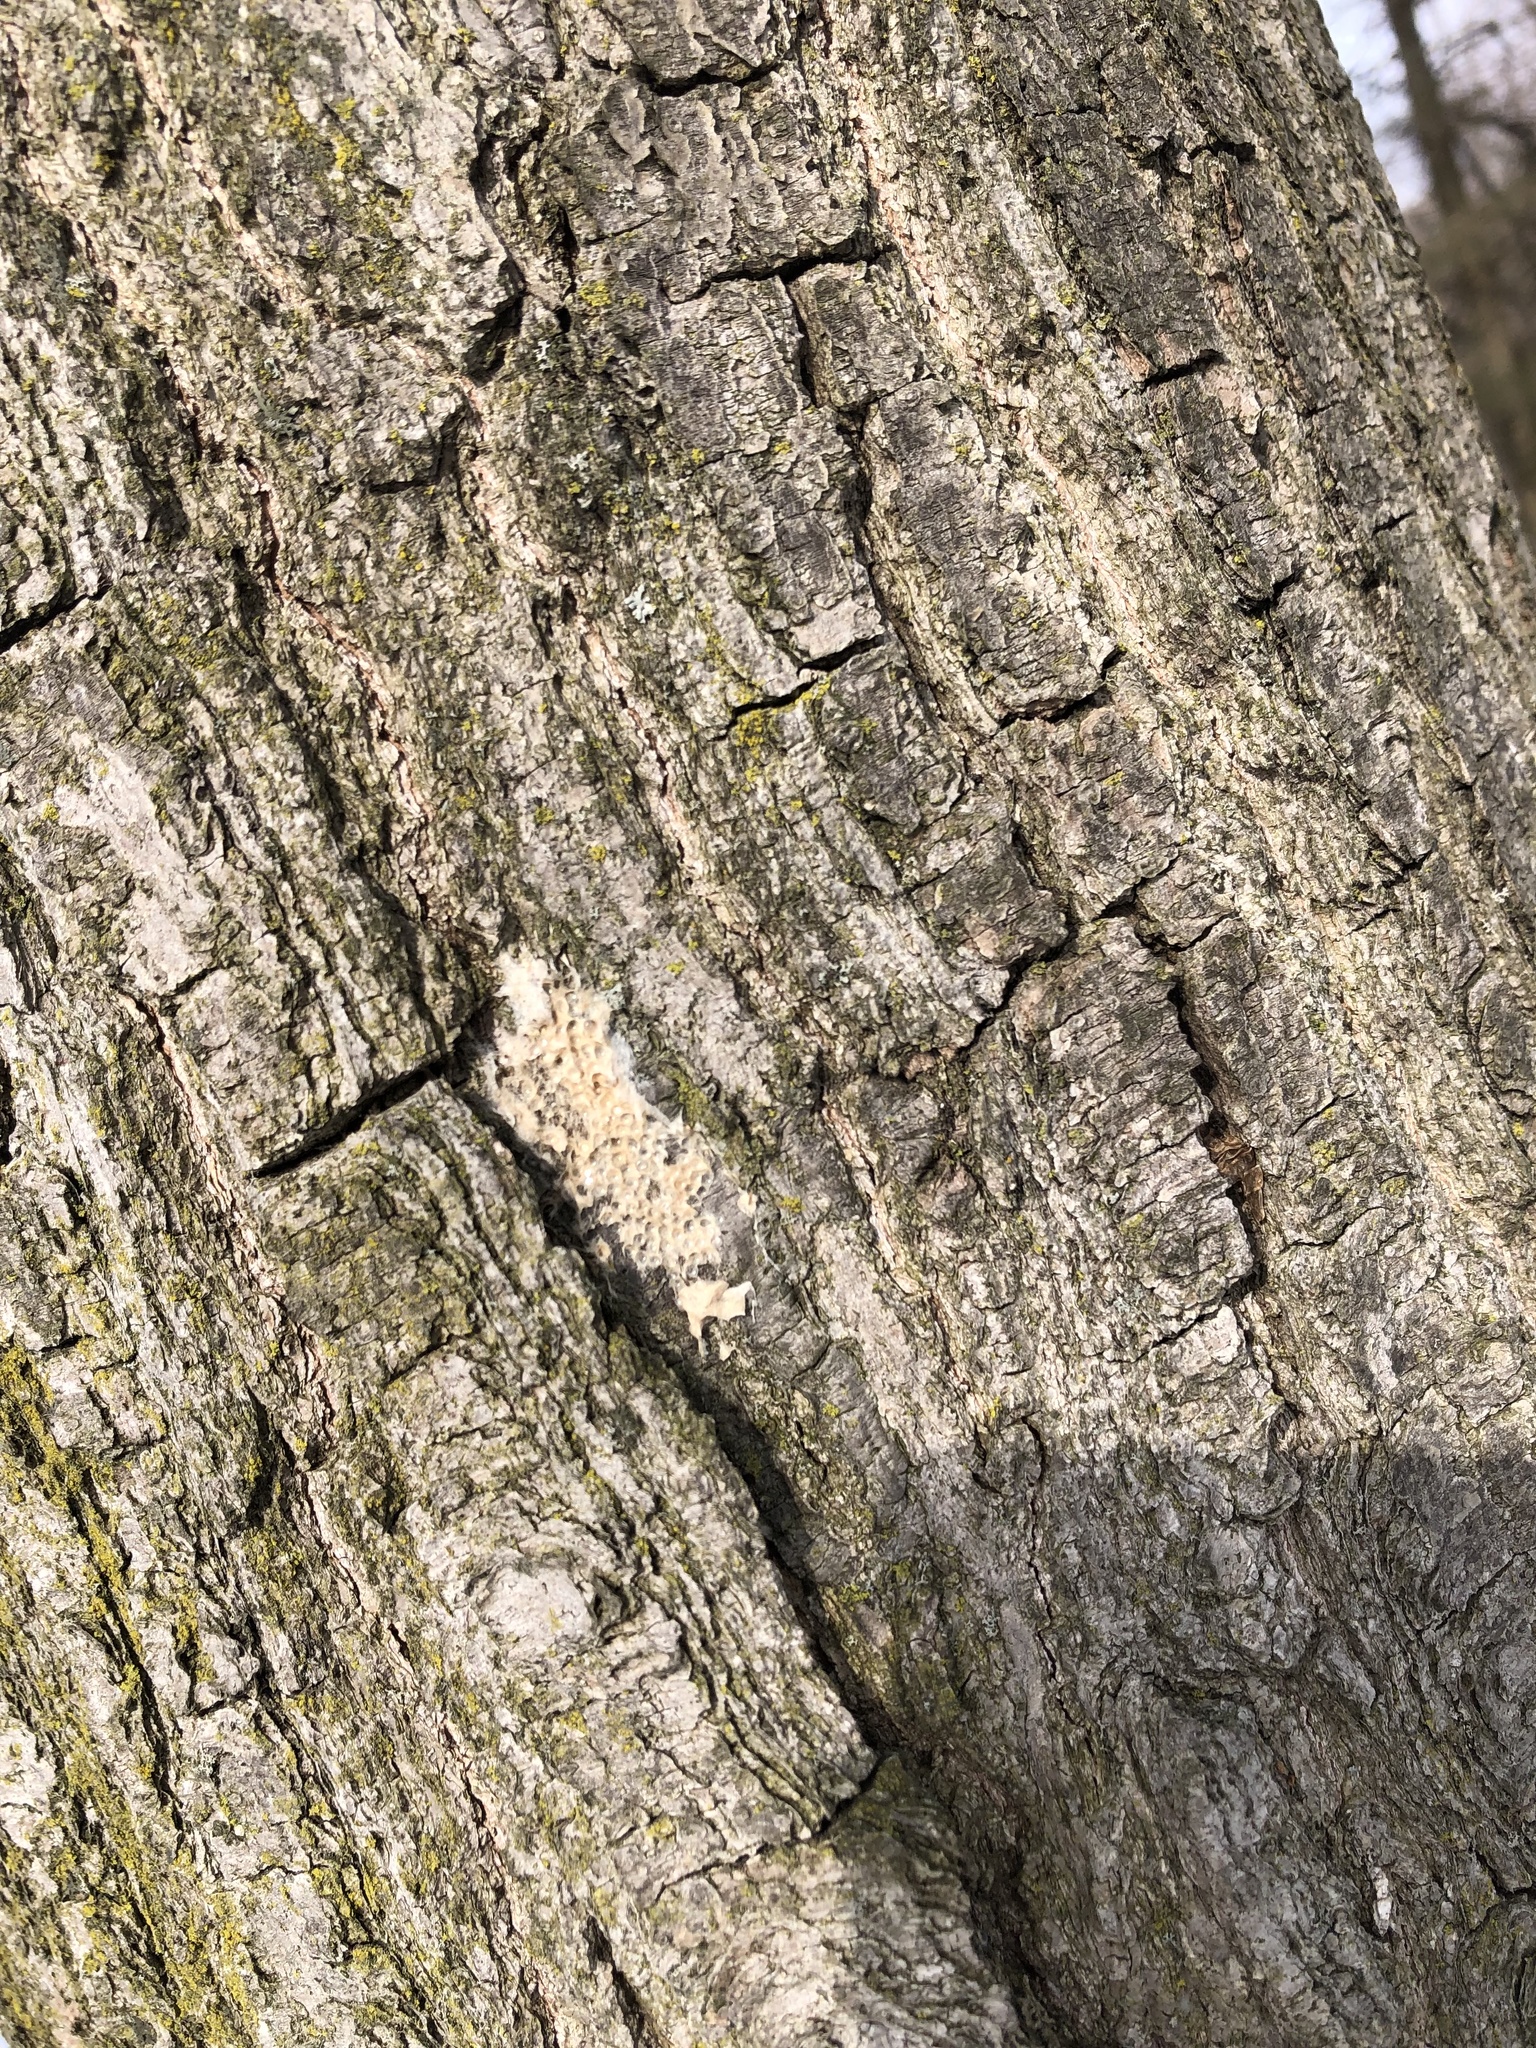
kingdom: Animalia
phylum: Arthropoda
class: Insecta
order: Lepidoptera
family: Erebidae
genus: Lymantria
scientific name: Lymantria dispar
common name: Gypsy moth
